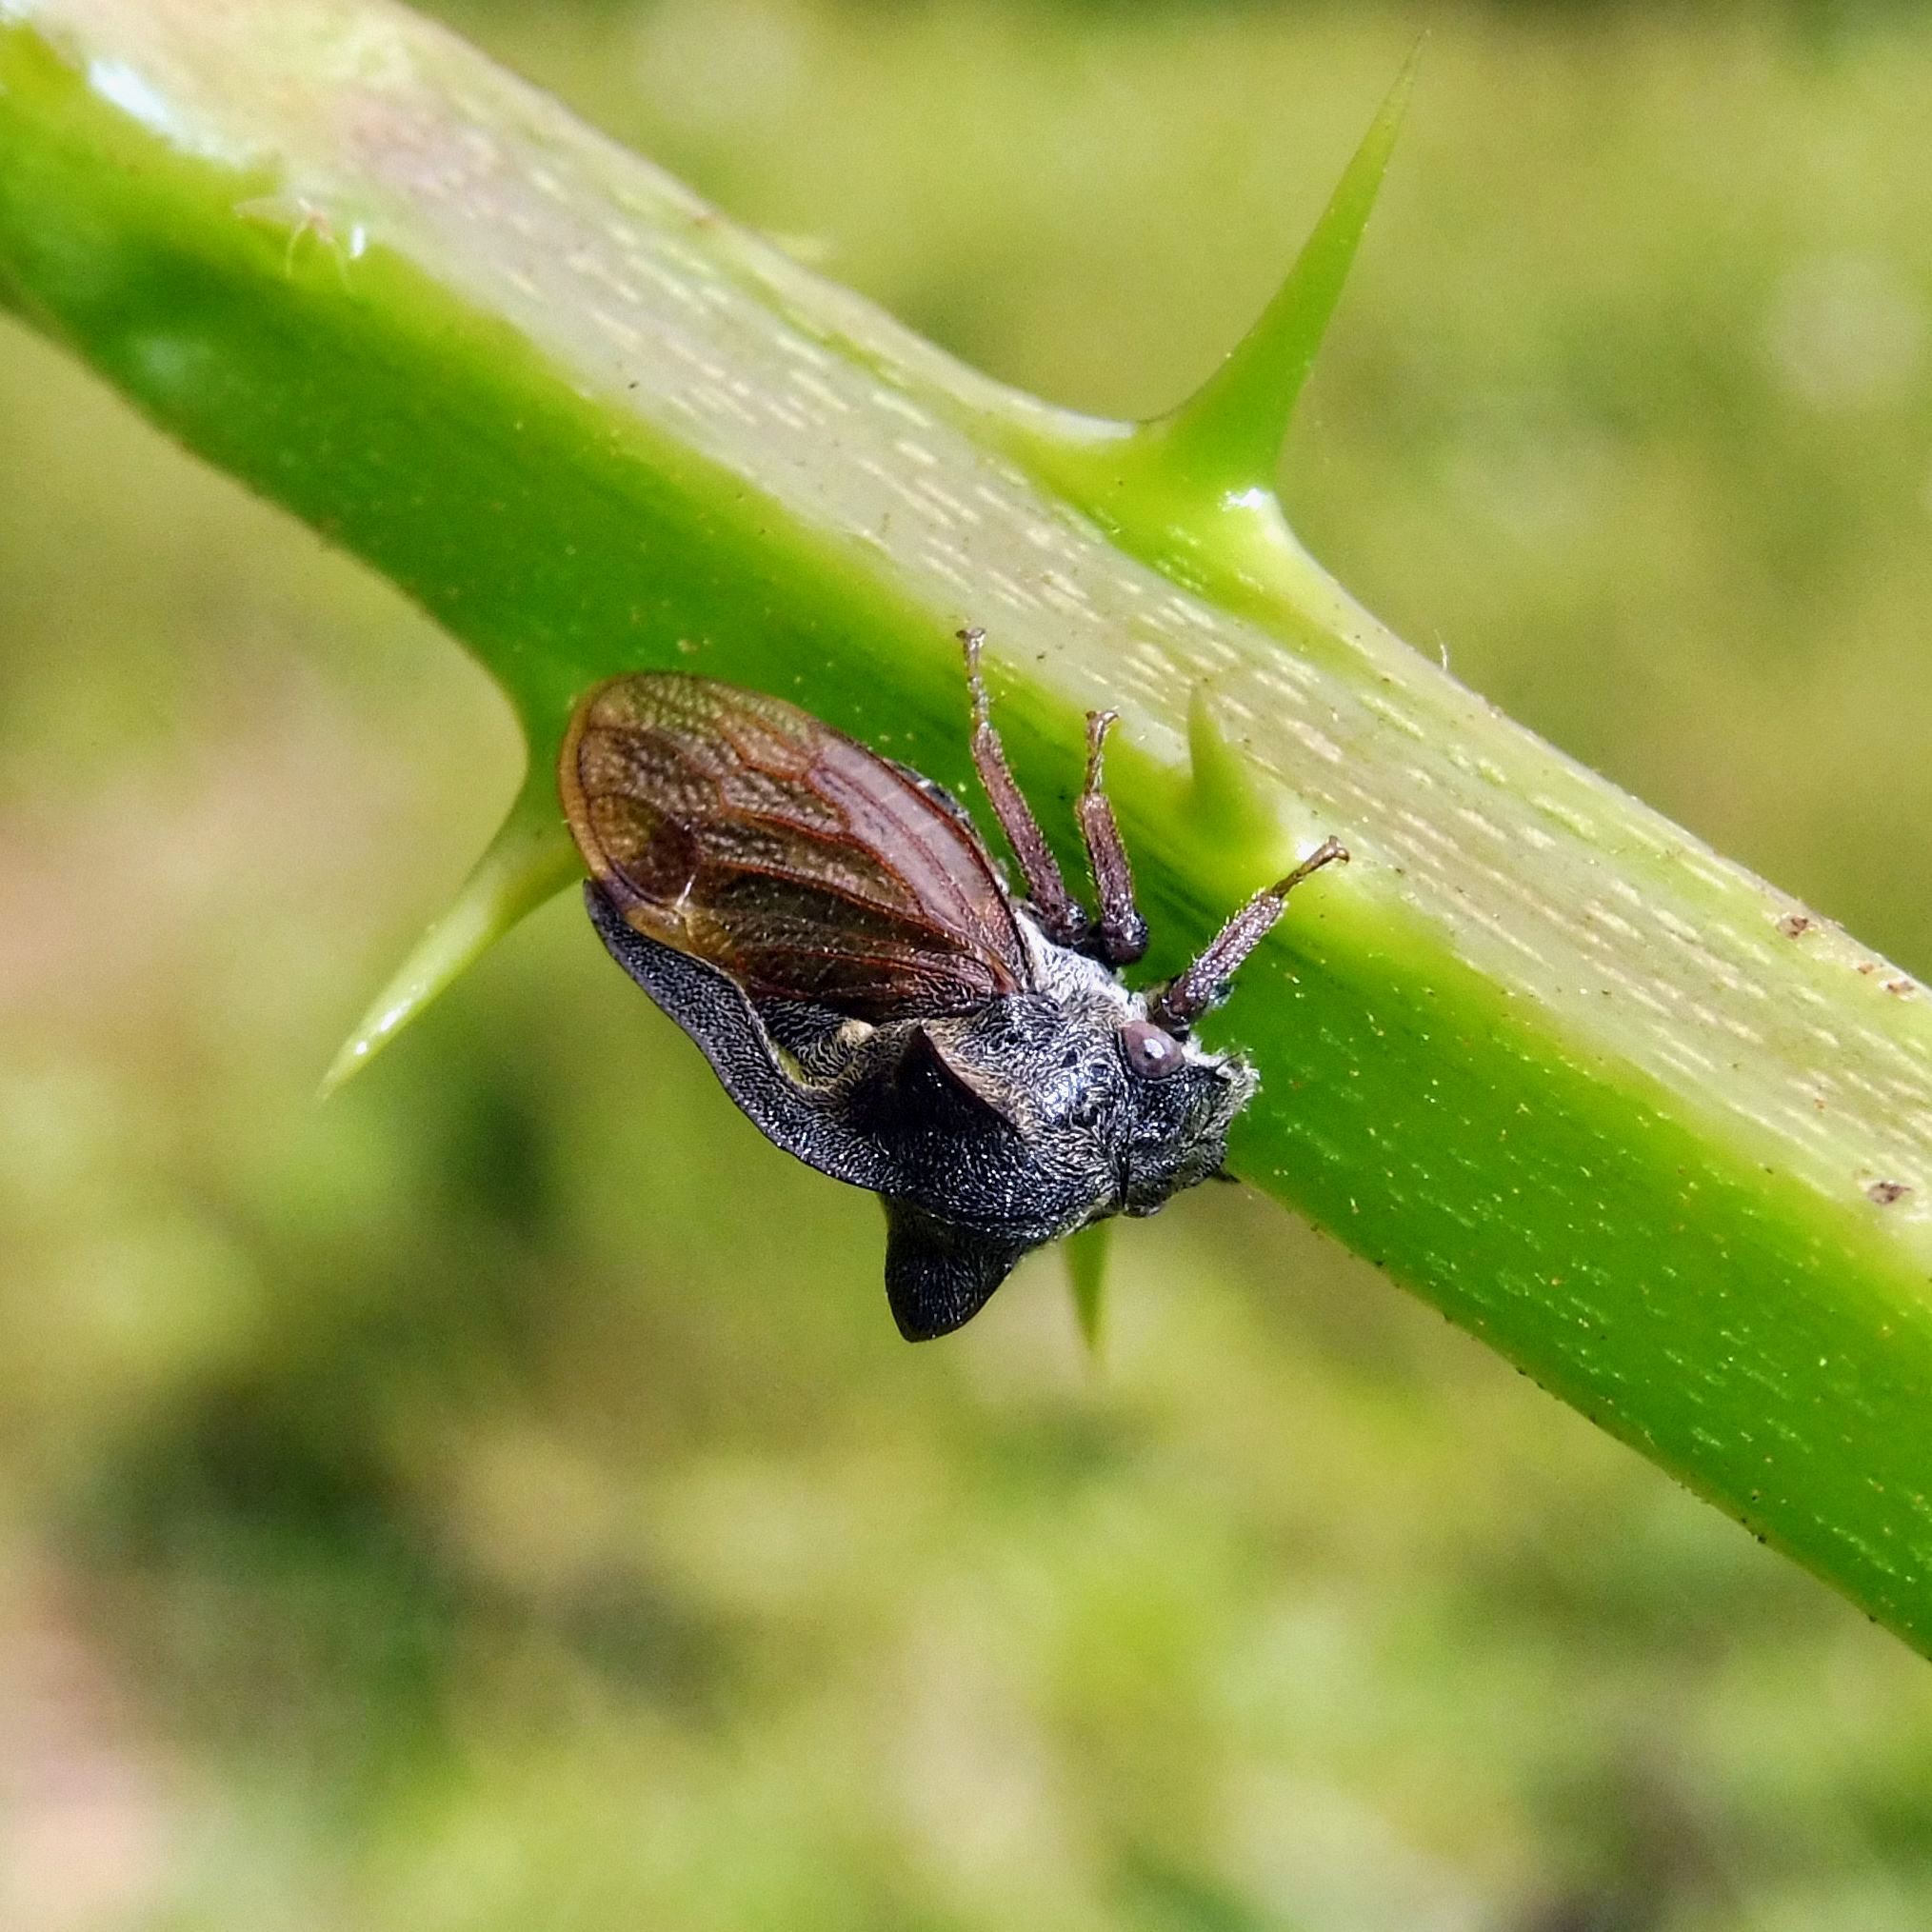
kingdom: Animalia
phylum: Arthropoda
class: Insecta
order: Hemiptera
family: Membracidae
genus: Centrotus
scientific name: Centrotus cornuta
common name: Treehopper
